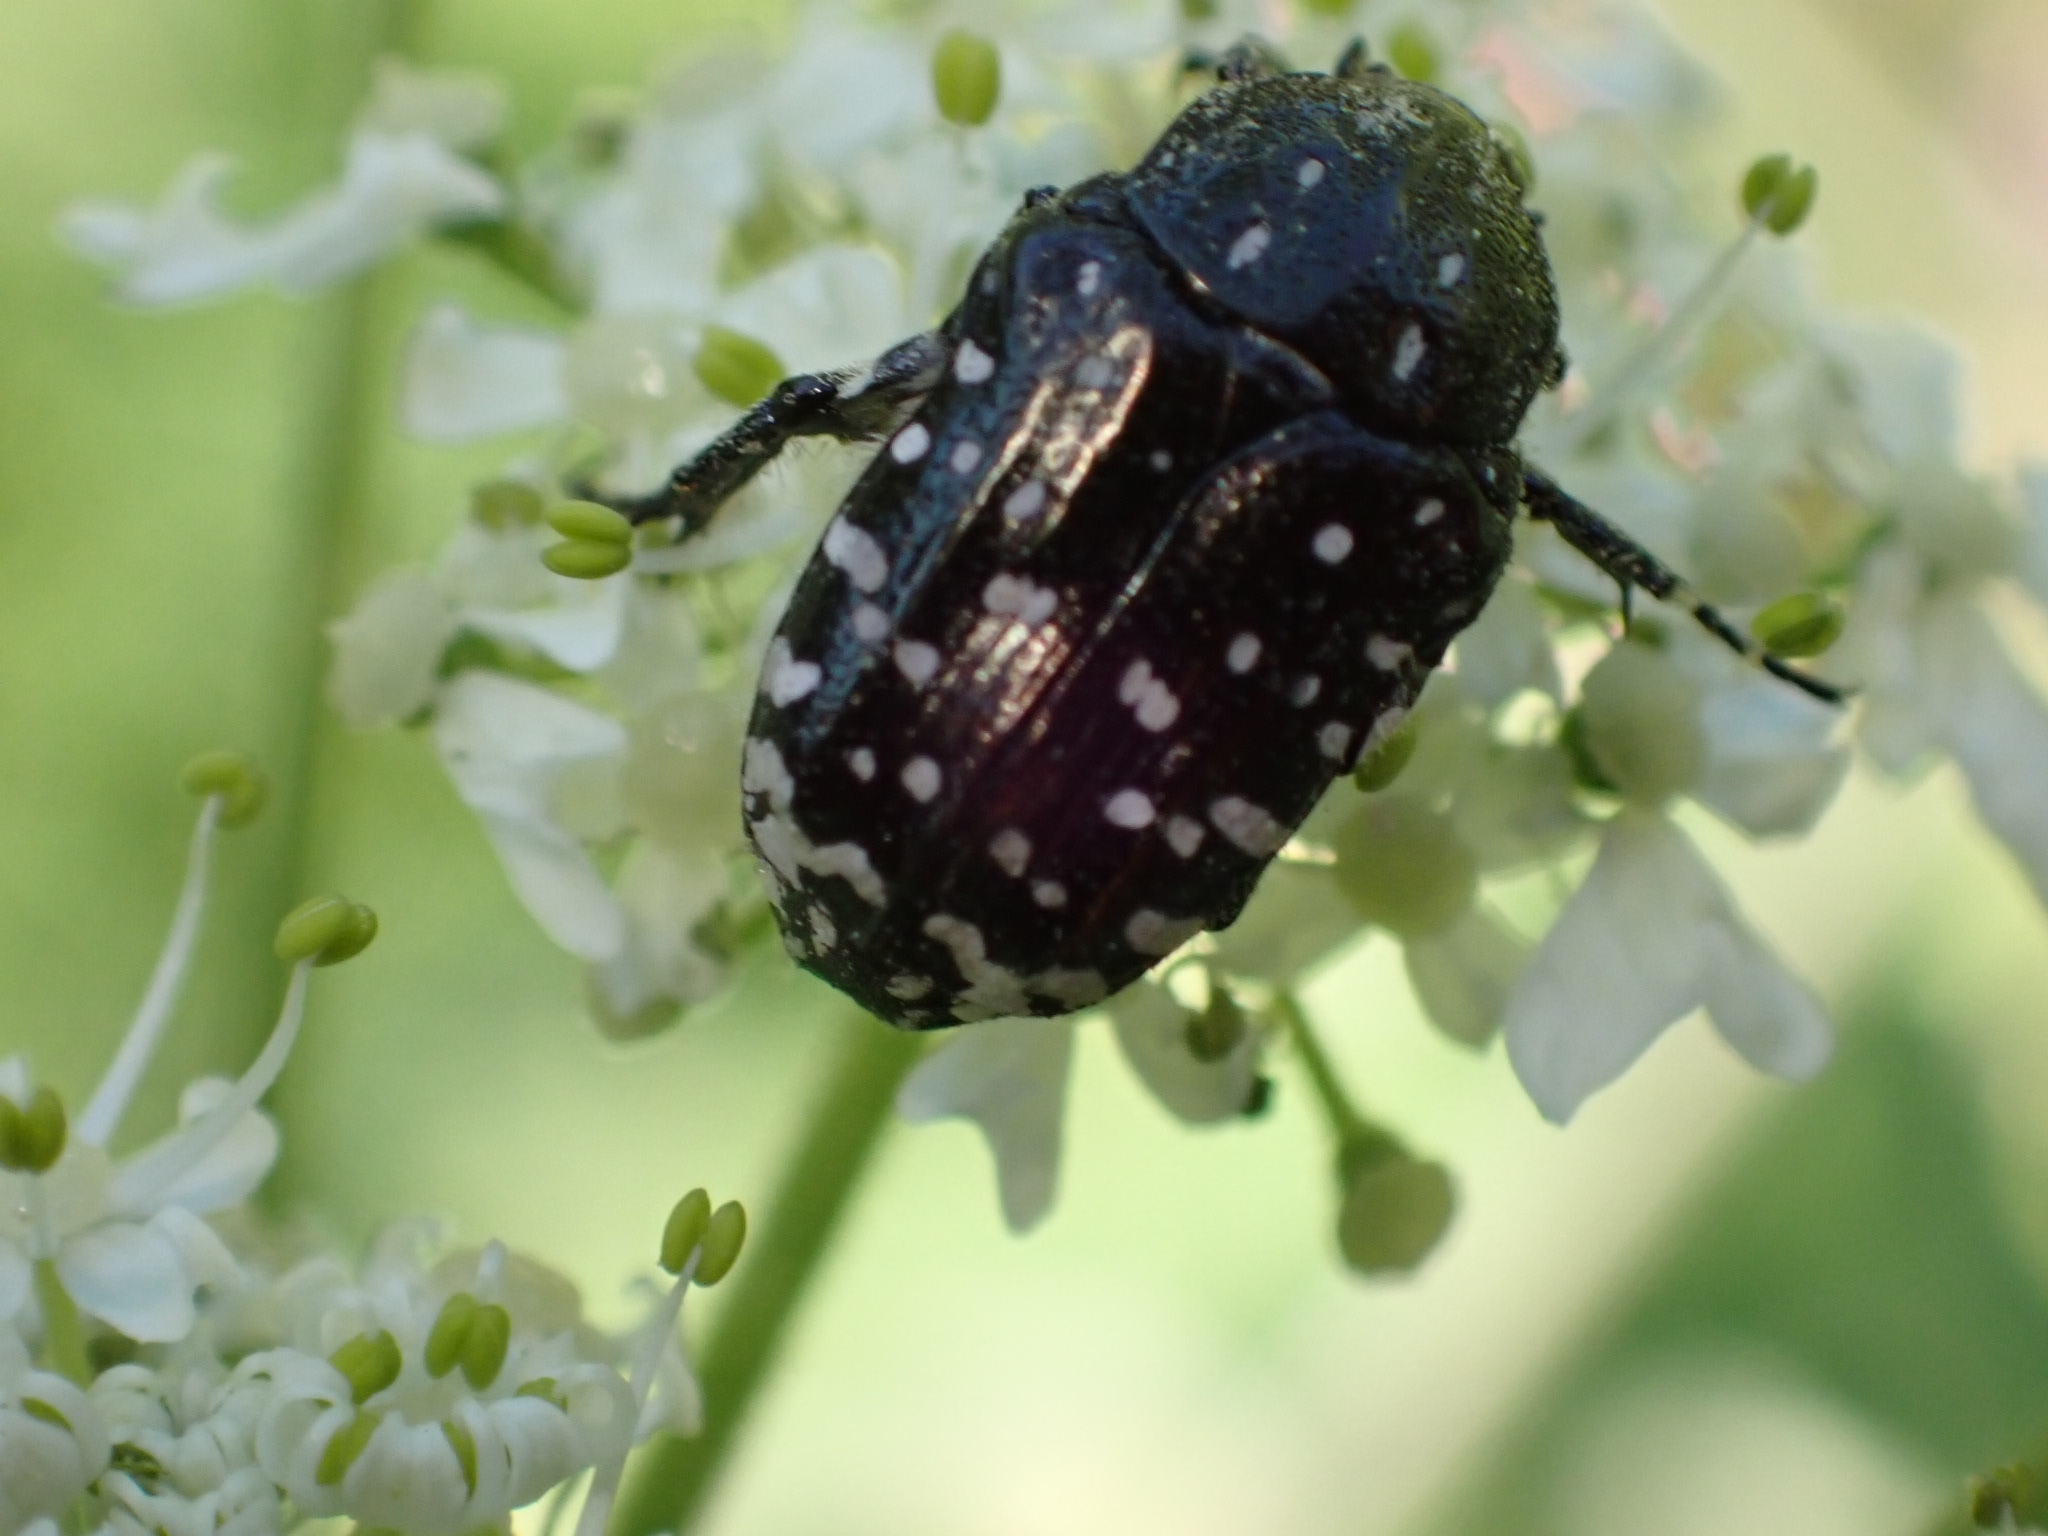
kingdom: Animalia
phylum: Arthropoda
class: Insecta
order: Coleoptera
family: Scarabaeidae
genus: Oxythyrea
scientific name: Oxythyrea funesta
